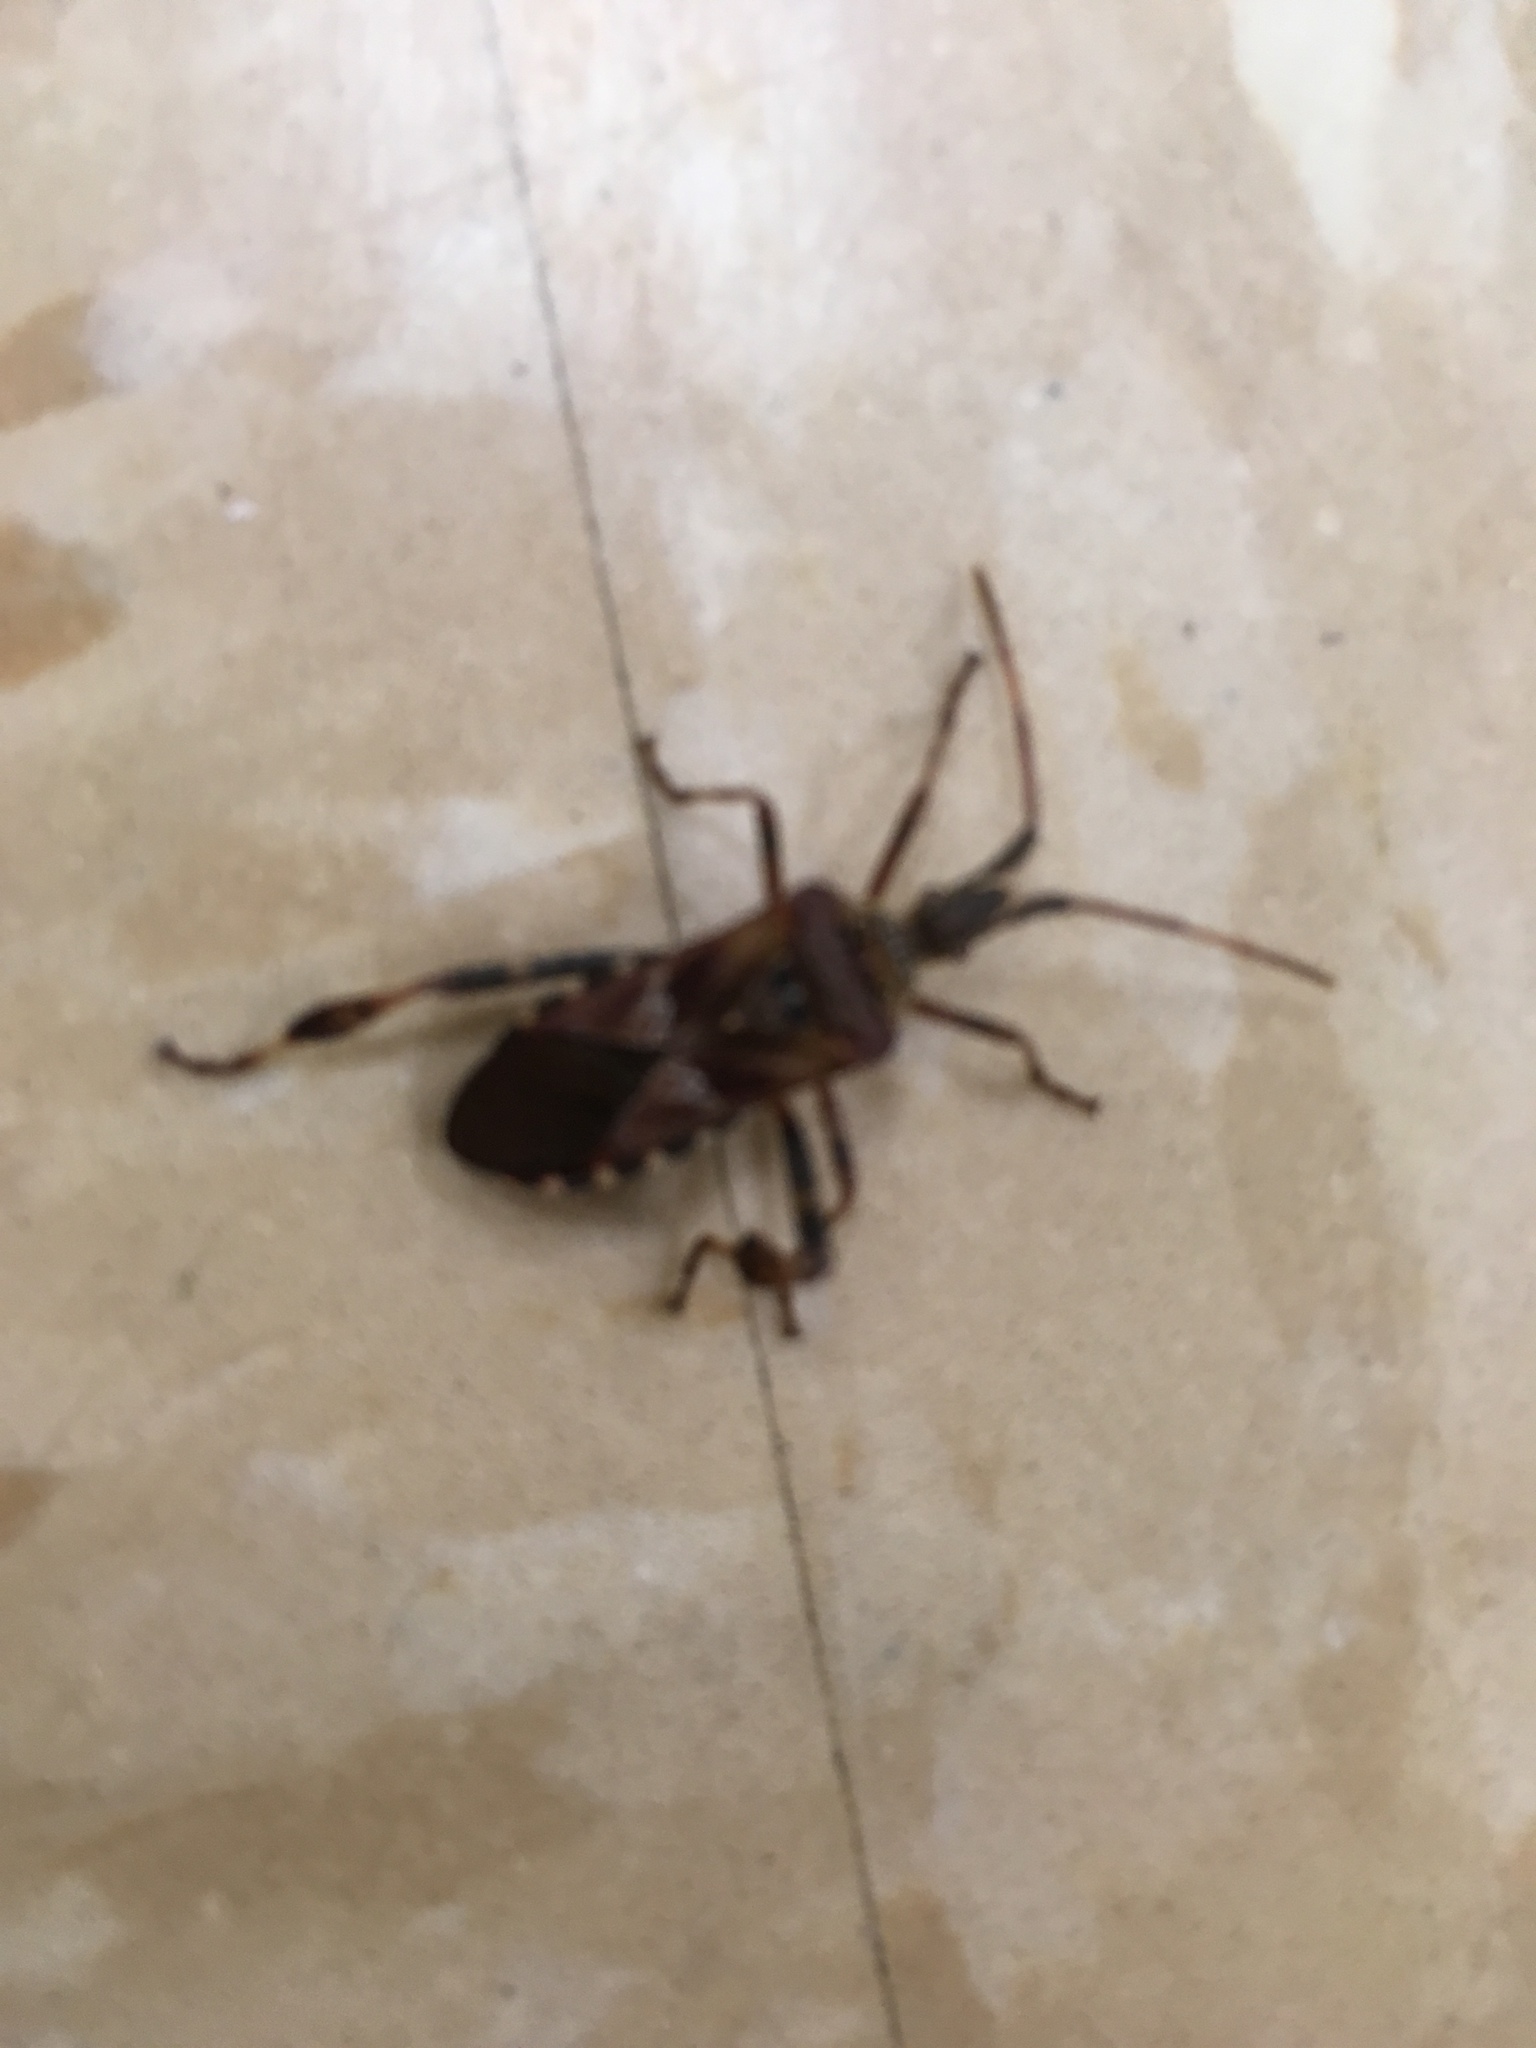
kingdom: Animalia
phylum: Arthropoda
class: Insecta
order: Hemiptera
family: Coreidae
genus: Leptoglossus
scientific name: Leptoglossus occidentalis
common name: Western conifer-seed bug
